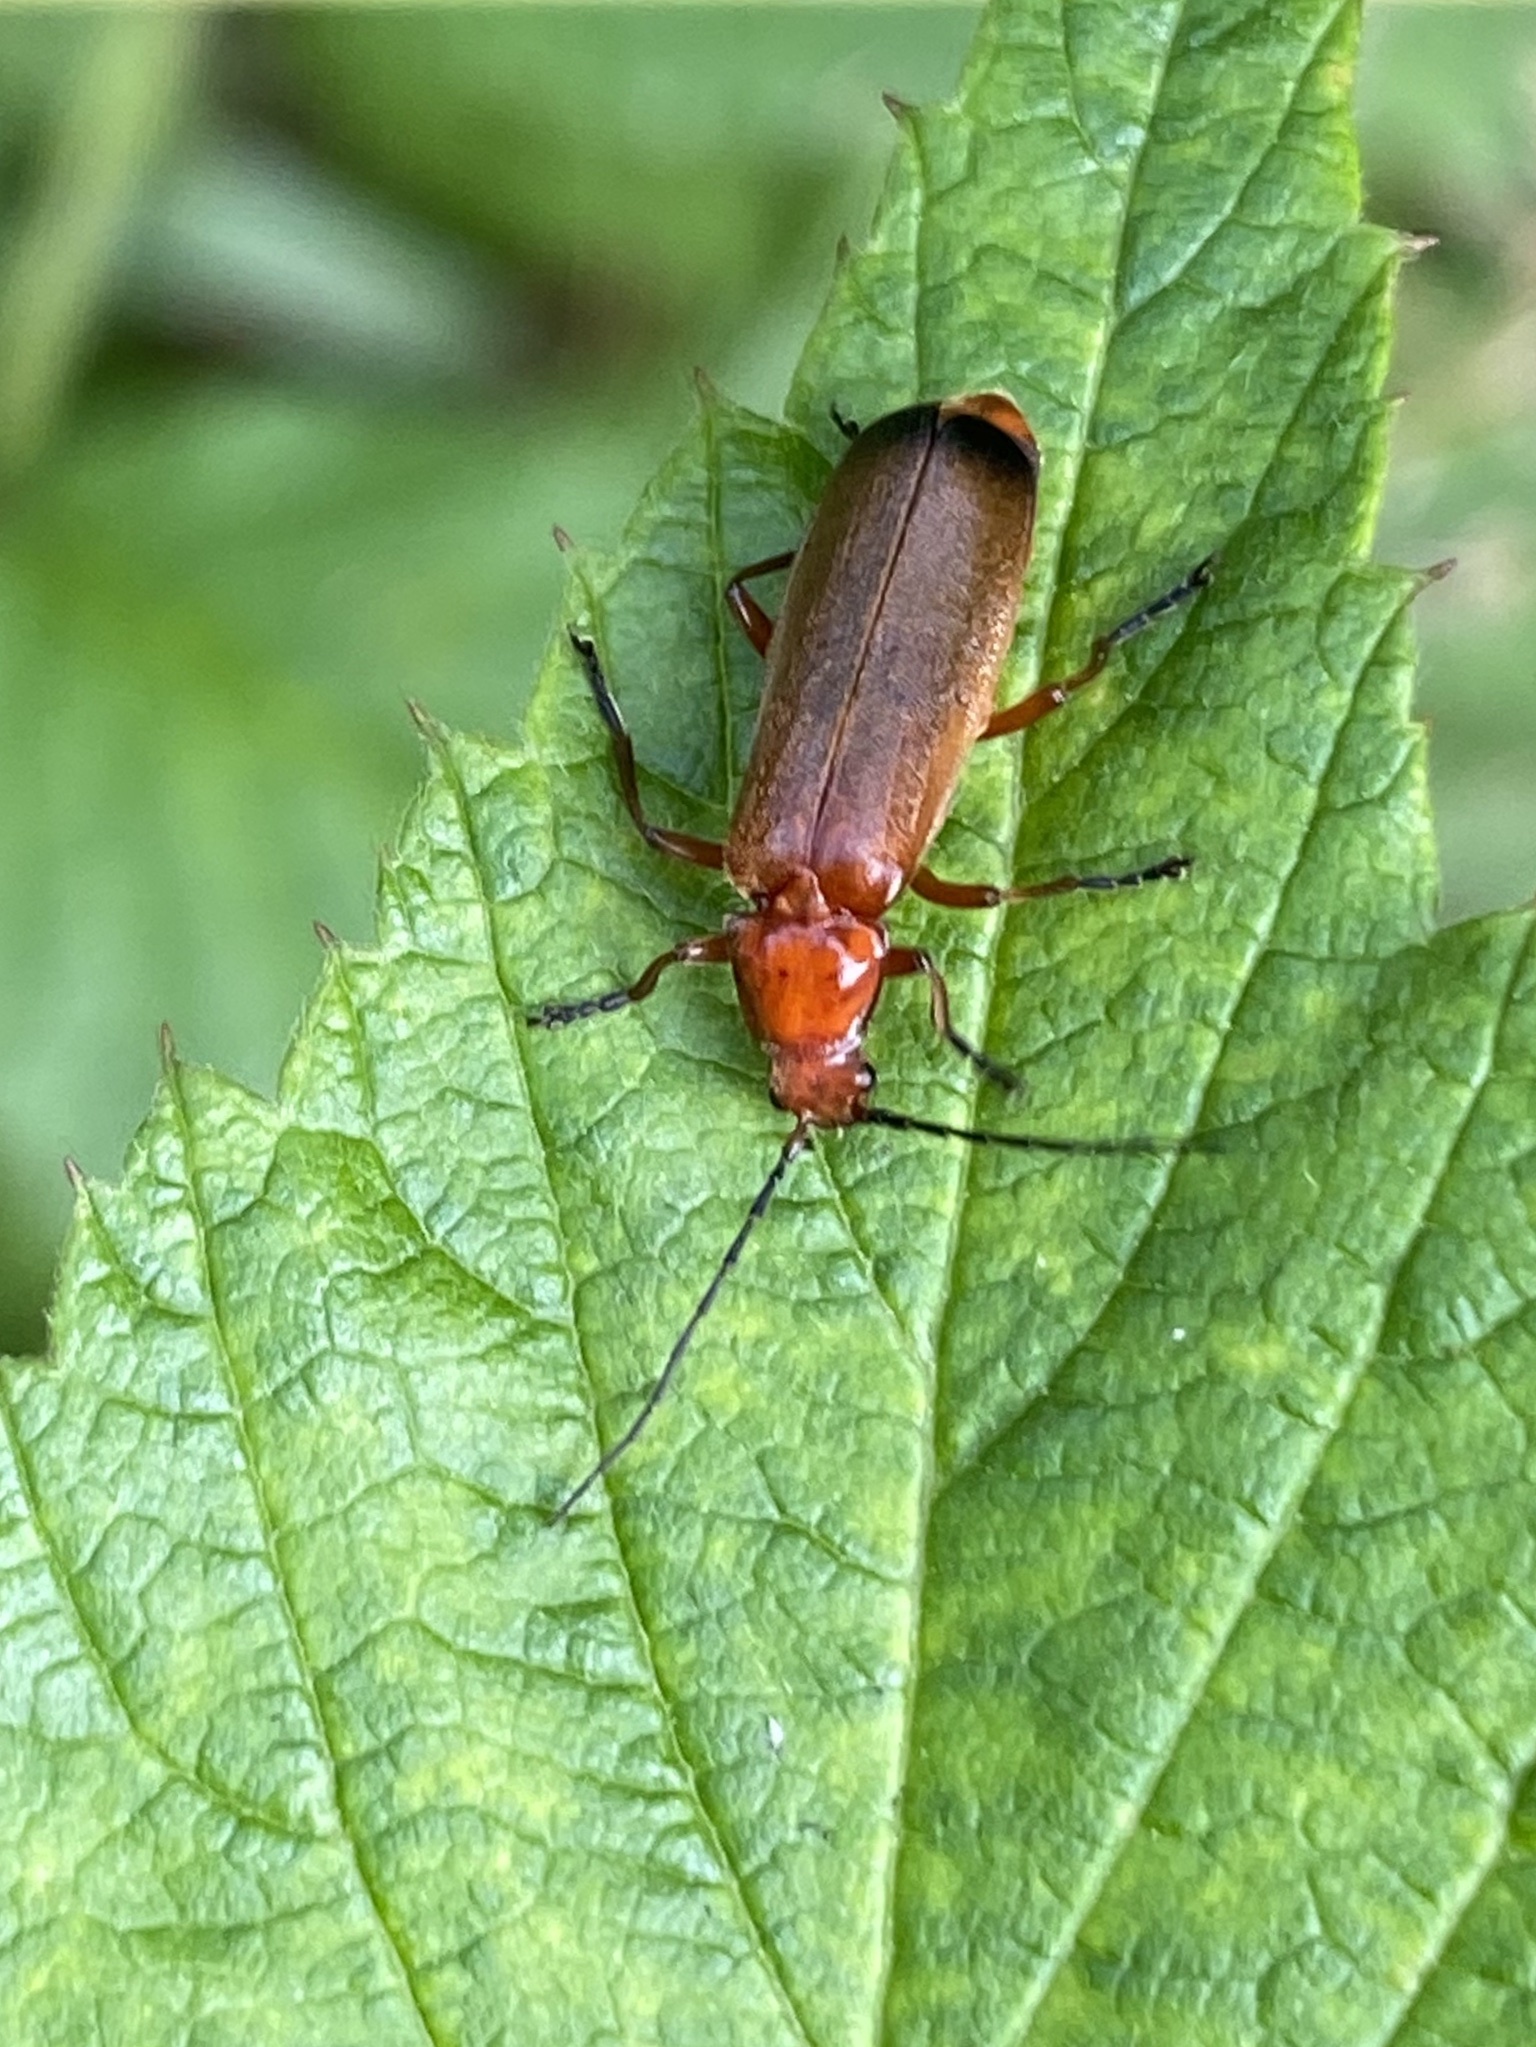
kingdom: Animalia
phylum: Arthropoda
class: Insecta
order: Coleoptera
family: Cantharidae
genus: Rhagonycha
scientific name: Rhagonycha fulva
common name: Common red soldier beetle
